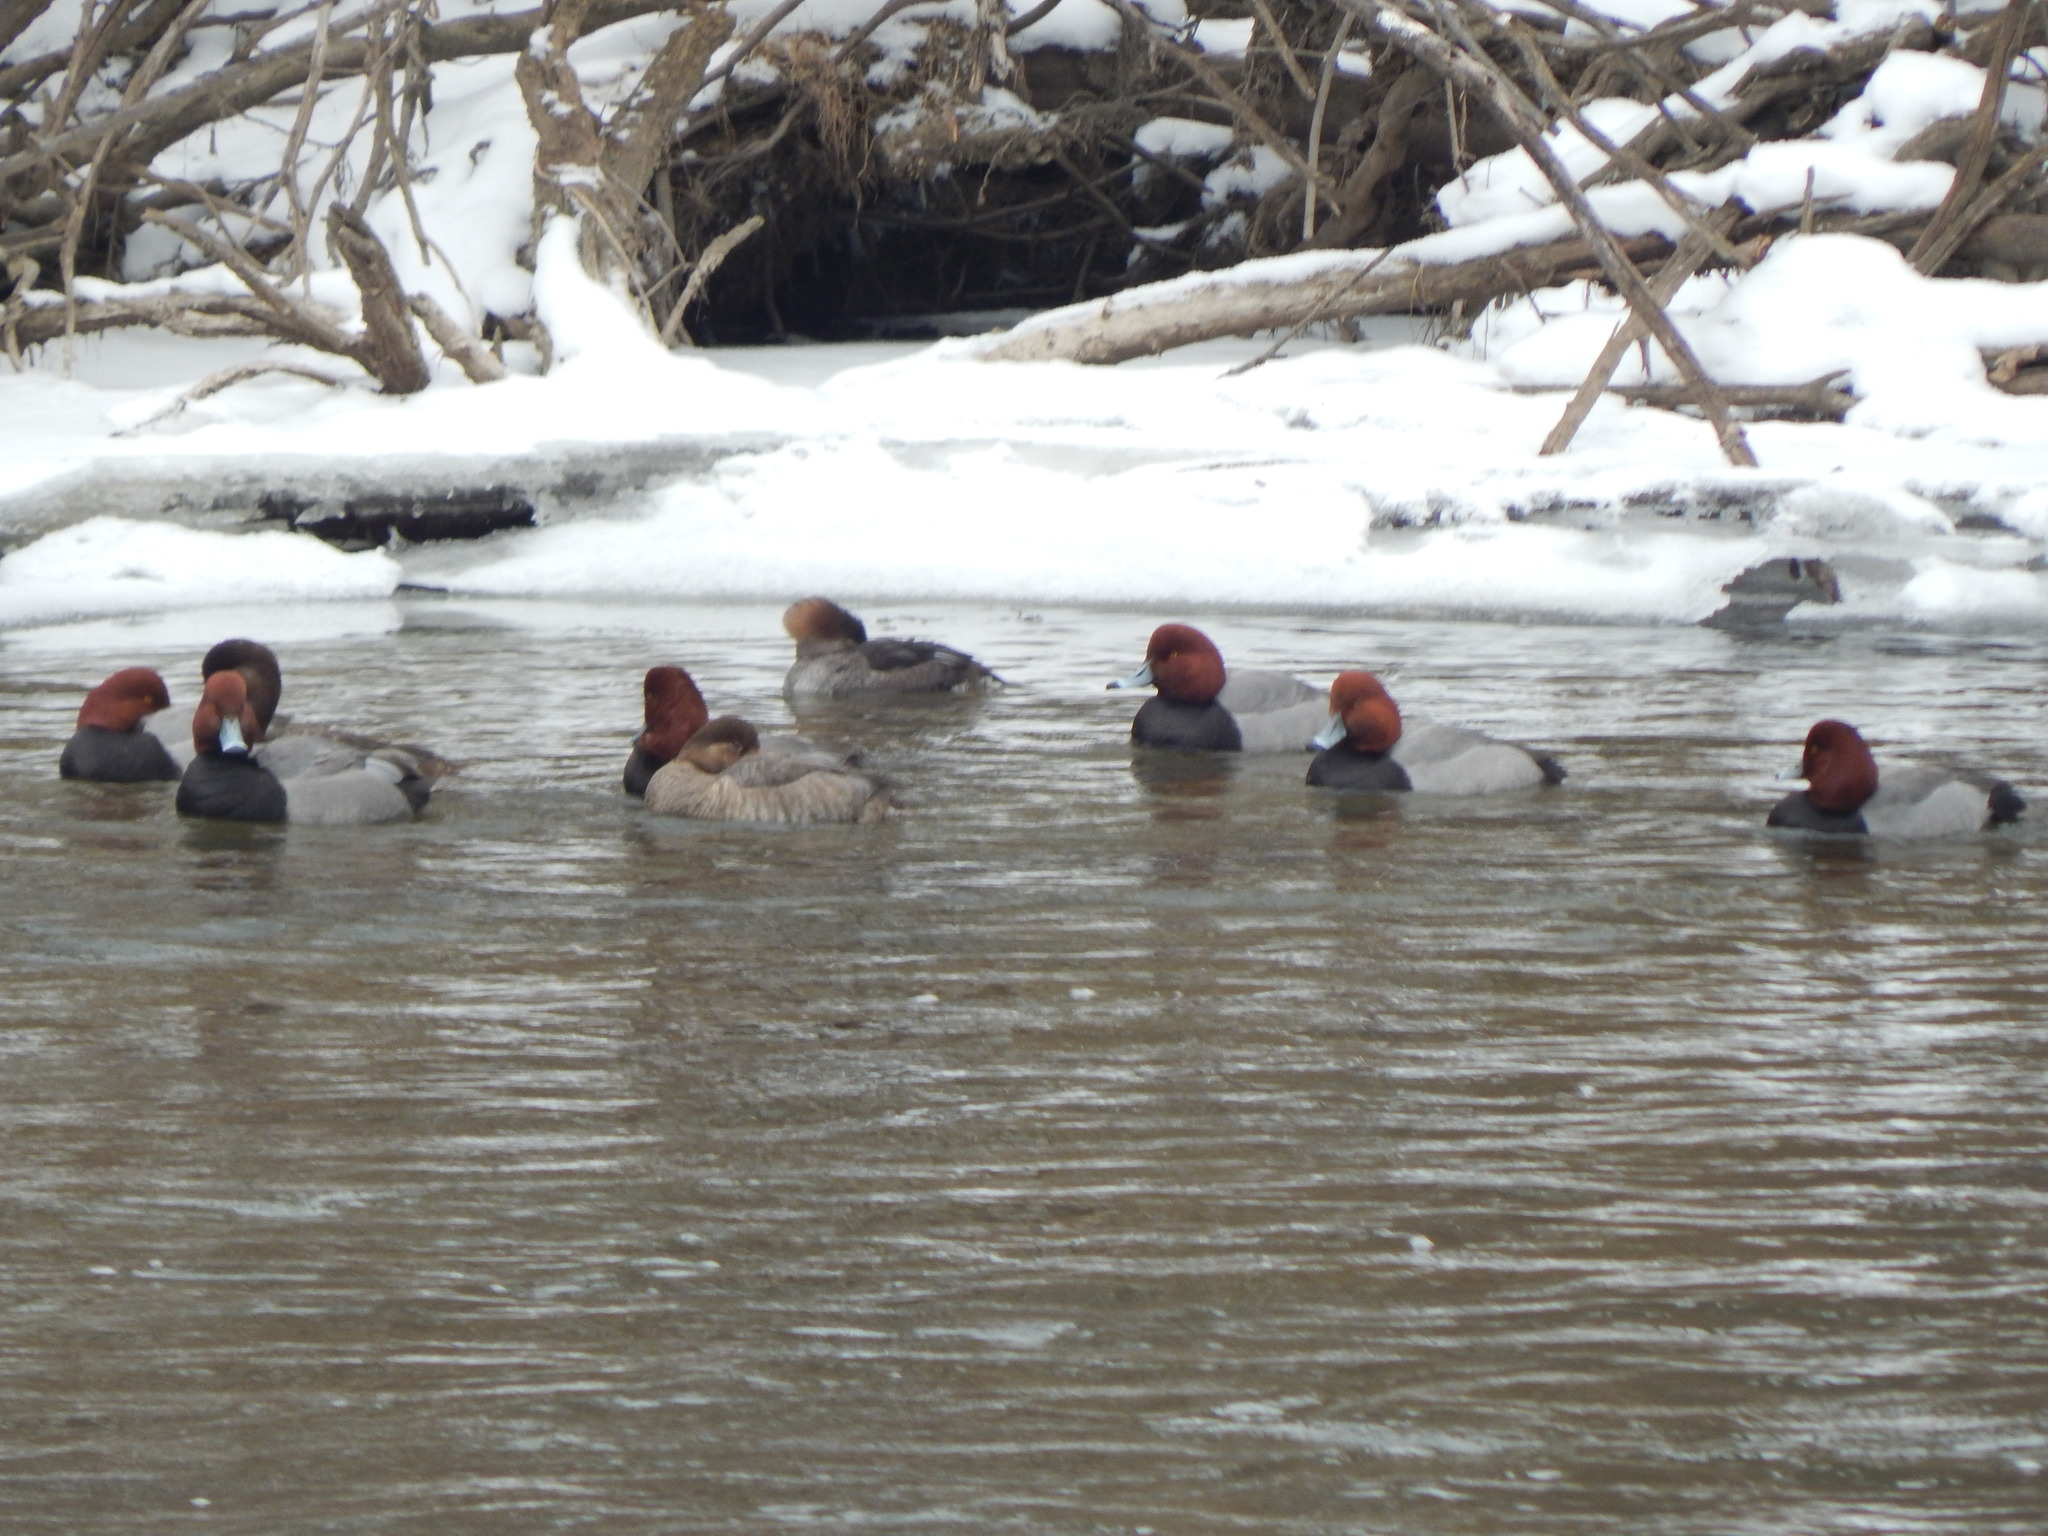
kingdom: Animalia
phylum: Chordata
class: Aves
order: Anseriformes
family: Anatidae
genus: Aythya
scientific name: Aythya americana
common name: Redhead
